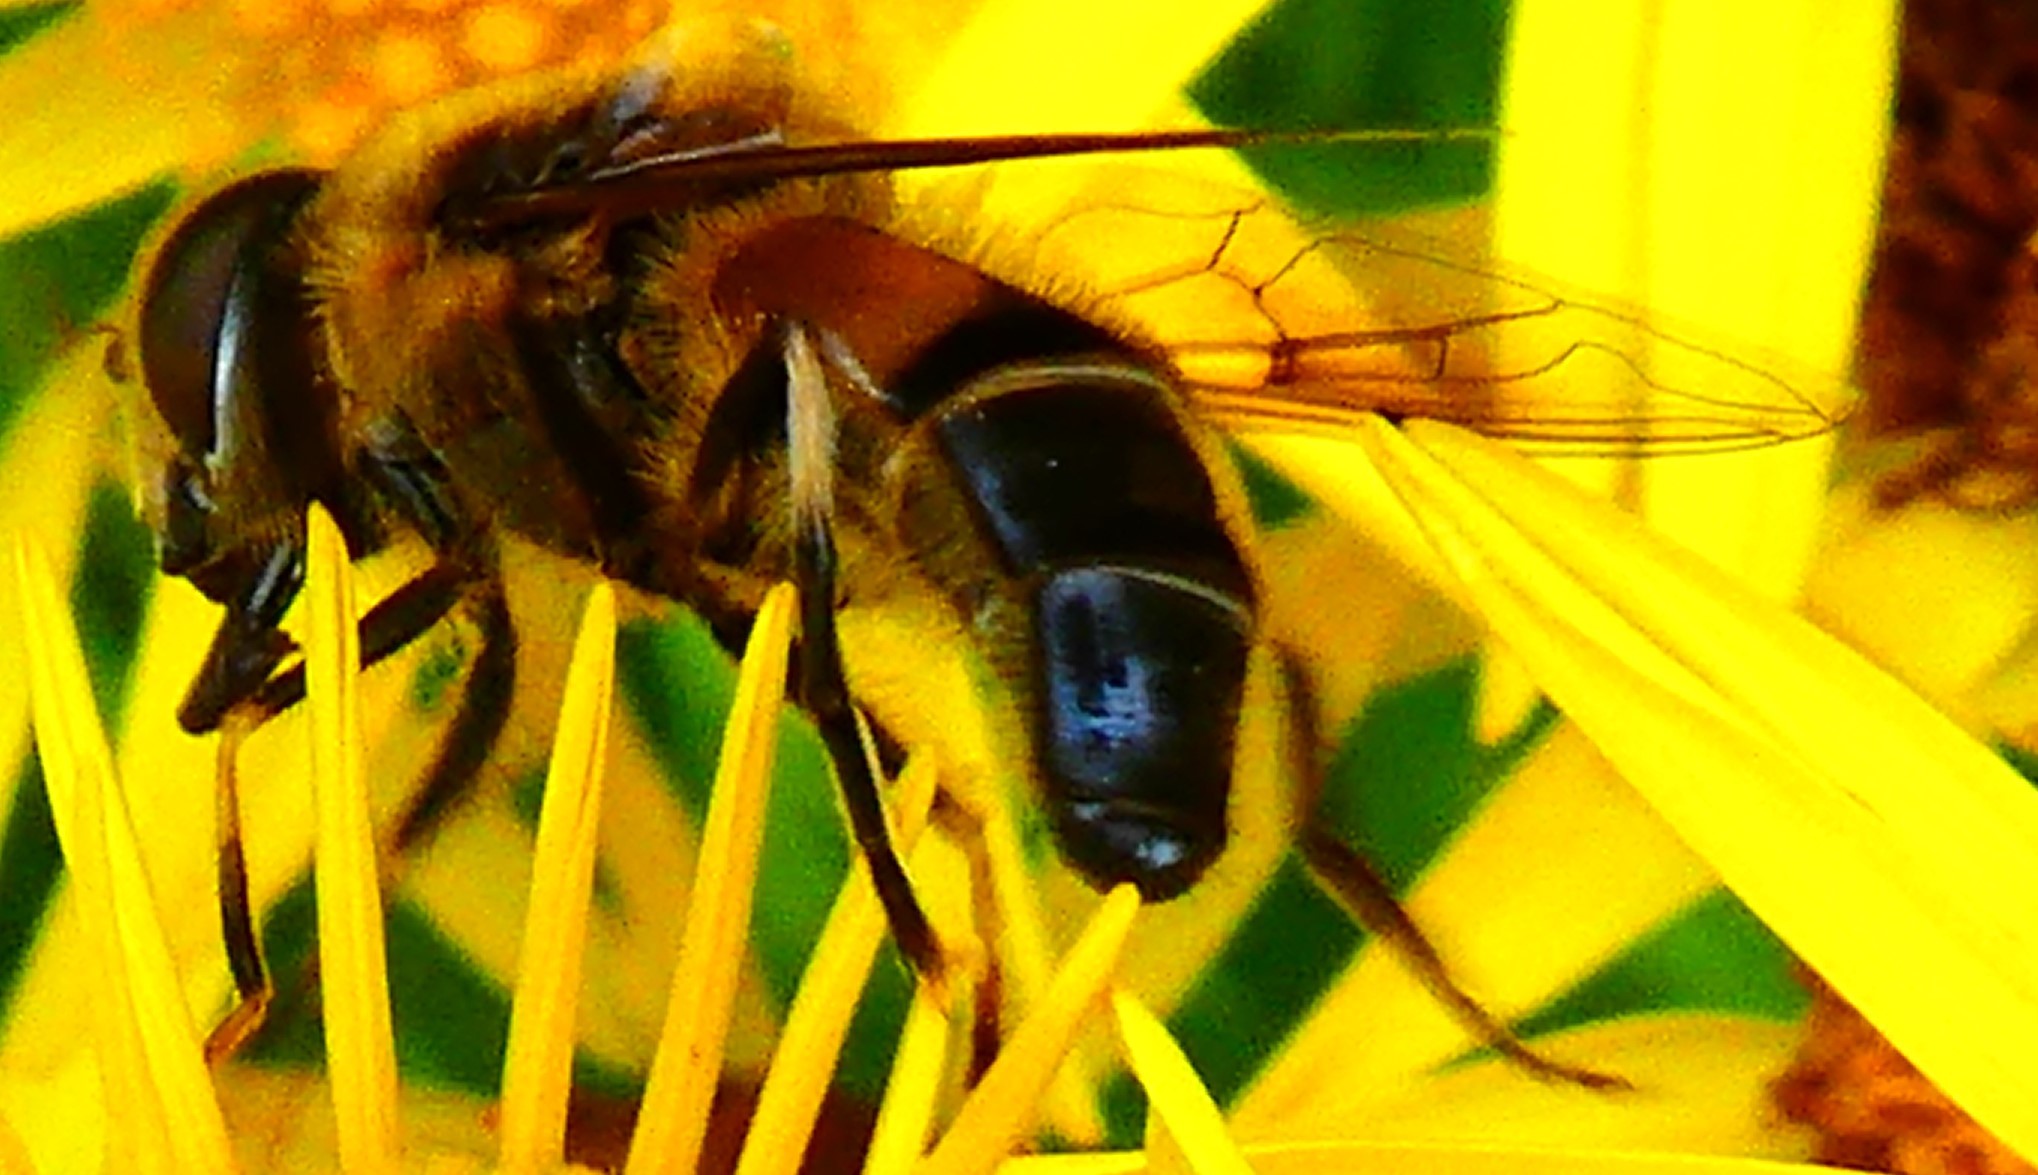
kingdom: Animalia
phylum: Arthropoda
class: Insecta
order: Diptera
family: Syrphidae
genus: Eristalis
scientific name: Eristalis pertinax
